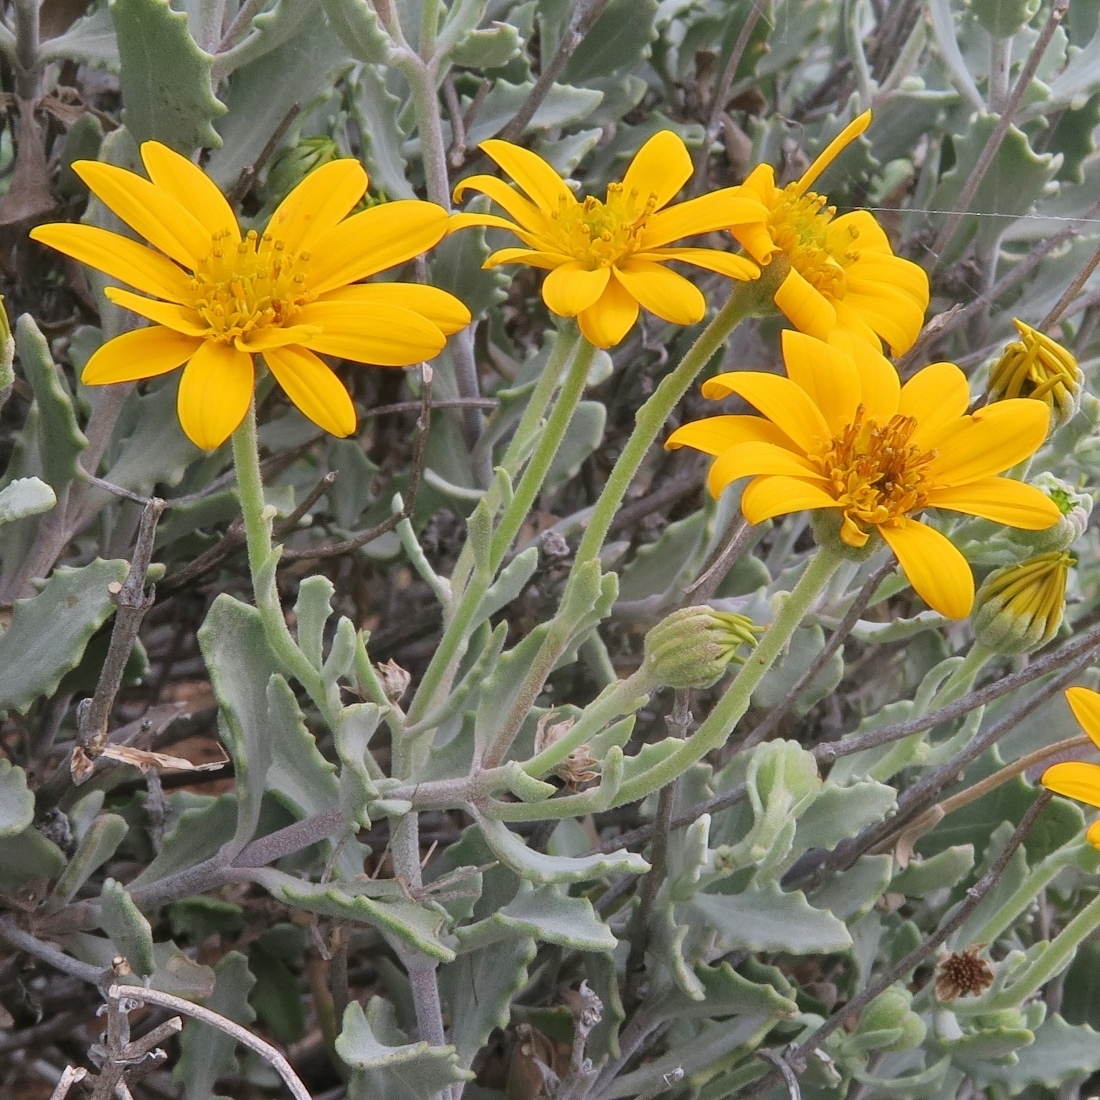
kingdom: Plantae
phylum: Tracheophyta
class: Magnoliopsida
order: Asterales
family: Asteraceae
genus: Osteospermum
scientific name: Osteospermum sinuatum
